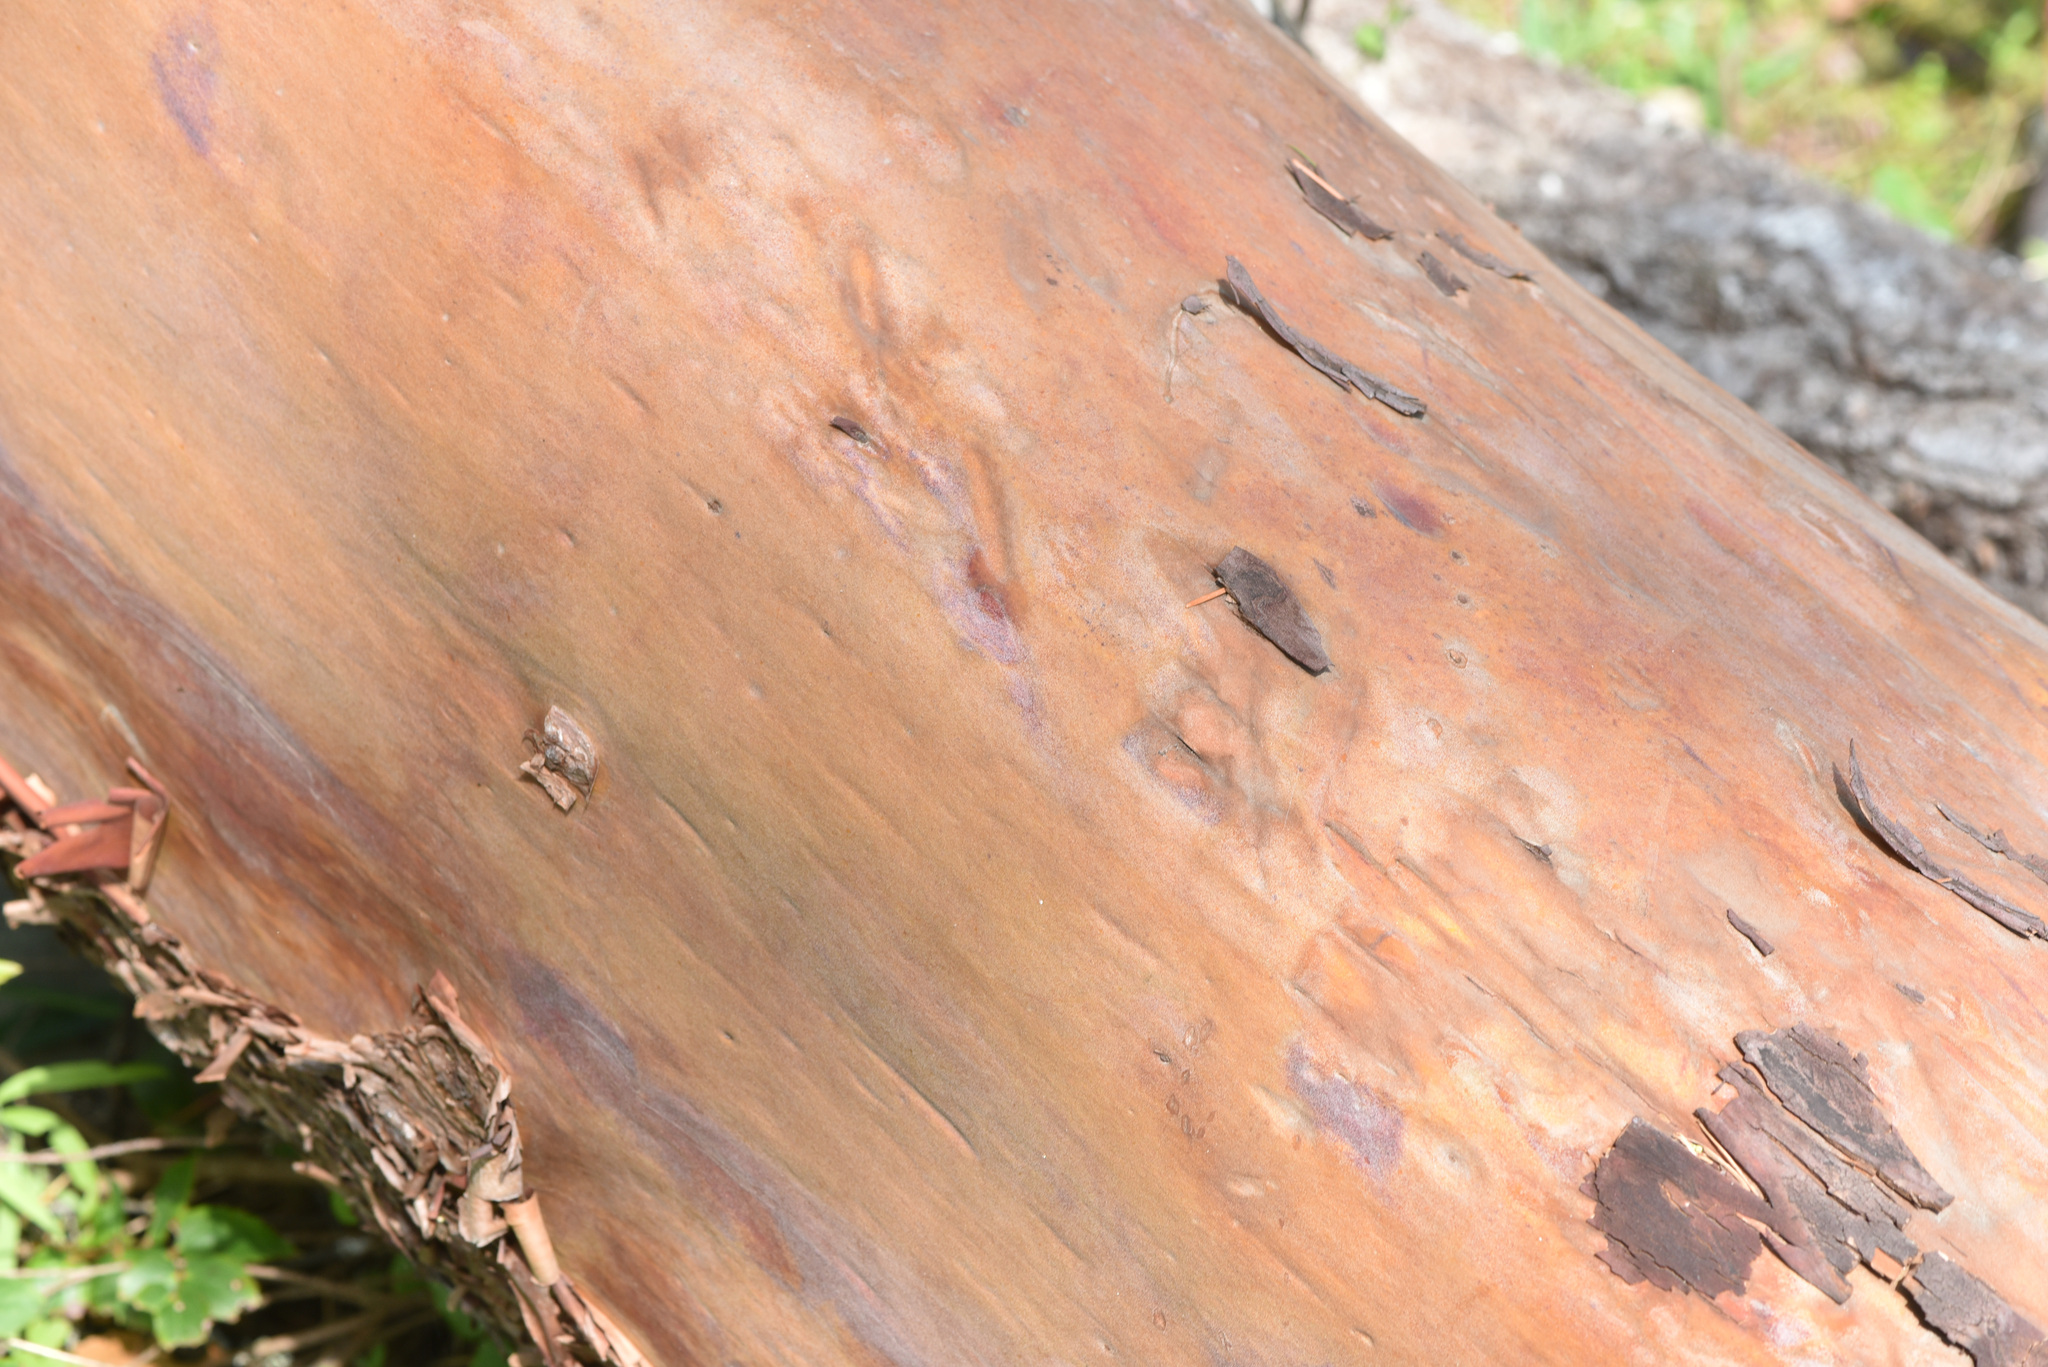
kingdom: Plantae
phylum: Tracheophyta
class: Magnoliopsida
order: Ericales
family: Ericaceae
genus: Arbutus
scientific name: Arbutus menziesii
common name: Pacific madrone
